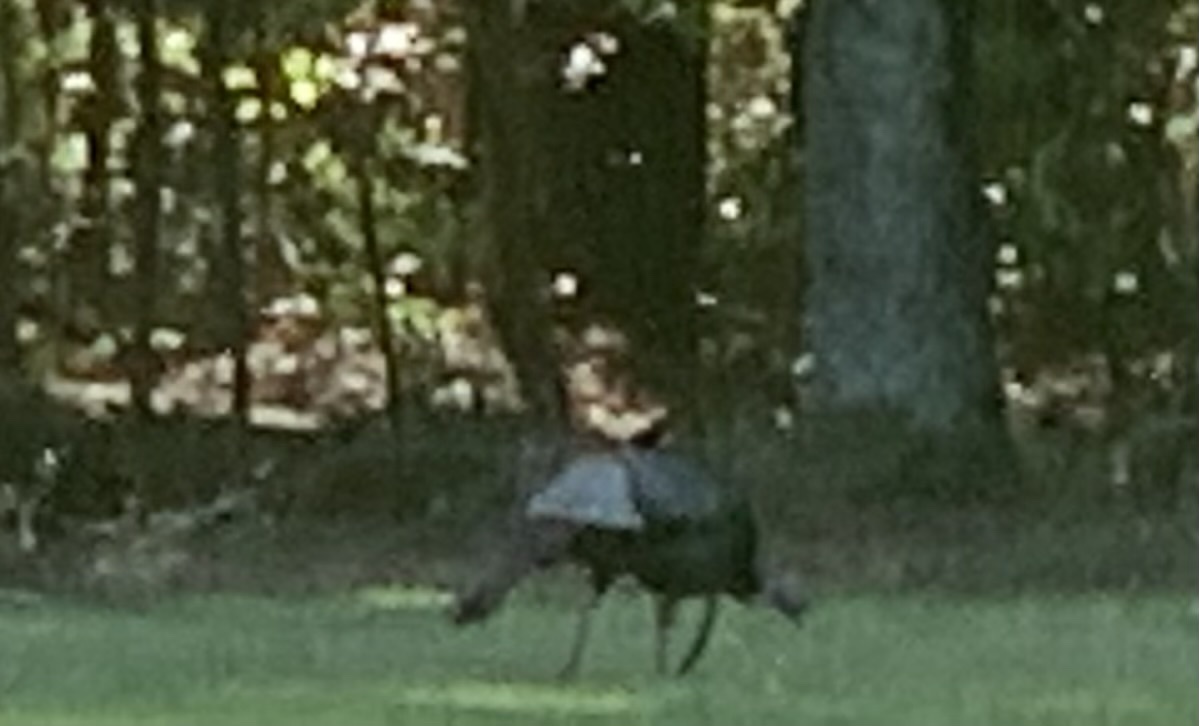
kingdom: Animalia
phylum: Chordata
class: Aves
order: Galliformes
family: Phasianidae
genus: Meleagris
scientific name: Meleagris gallopavo
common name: Wild turkey
